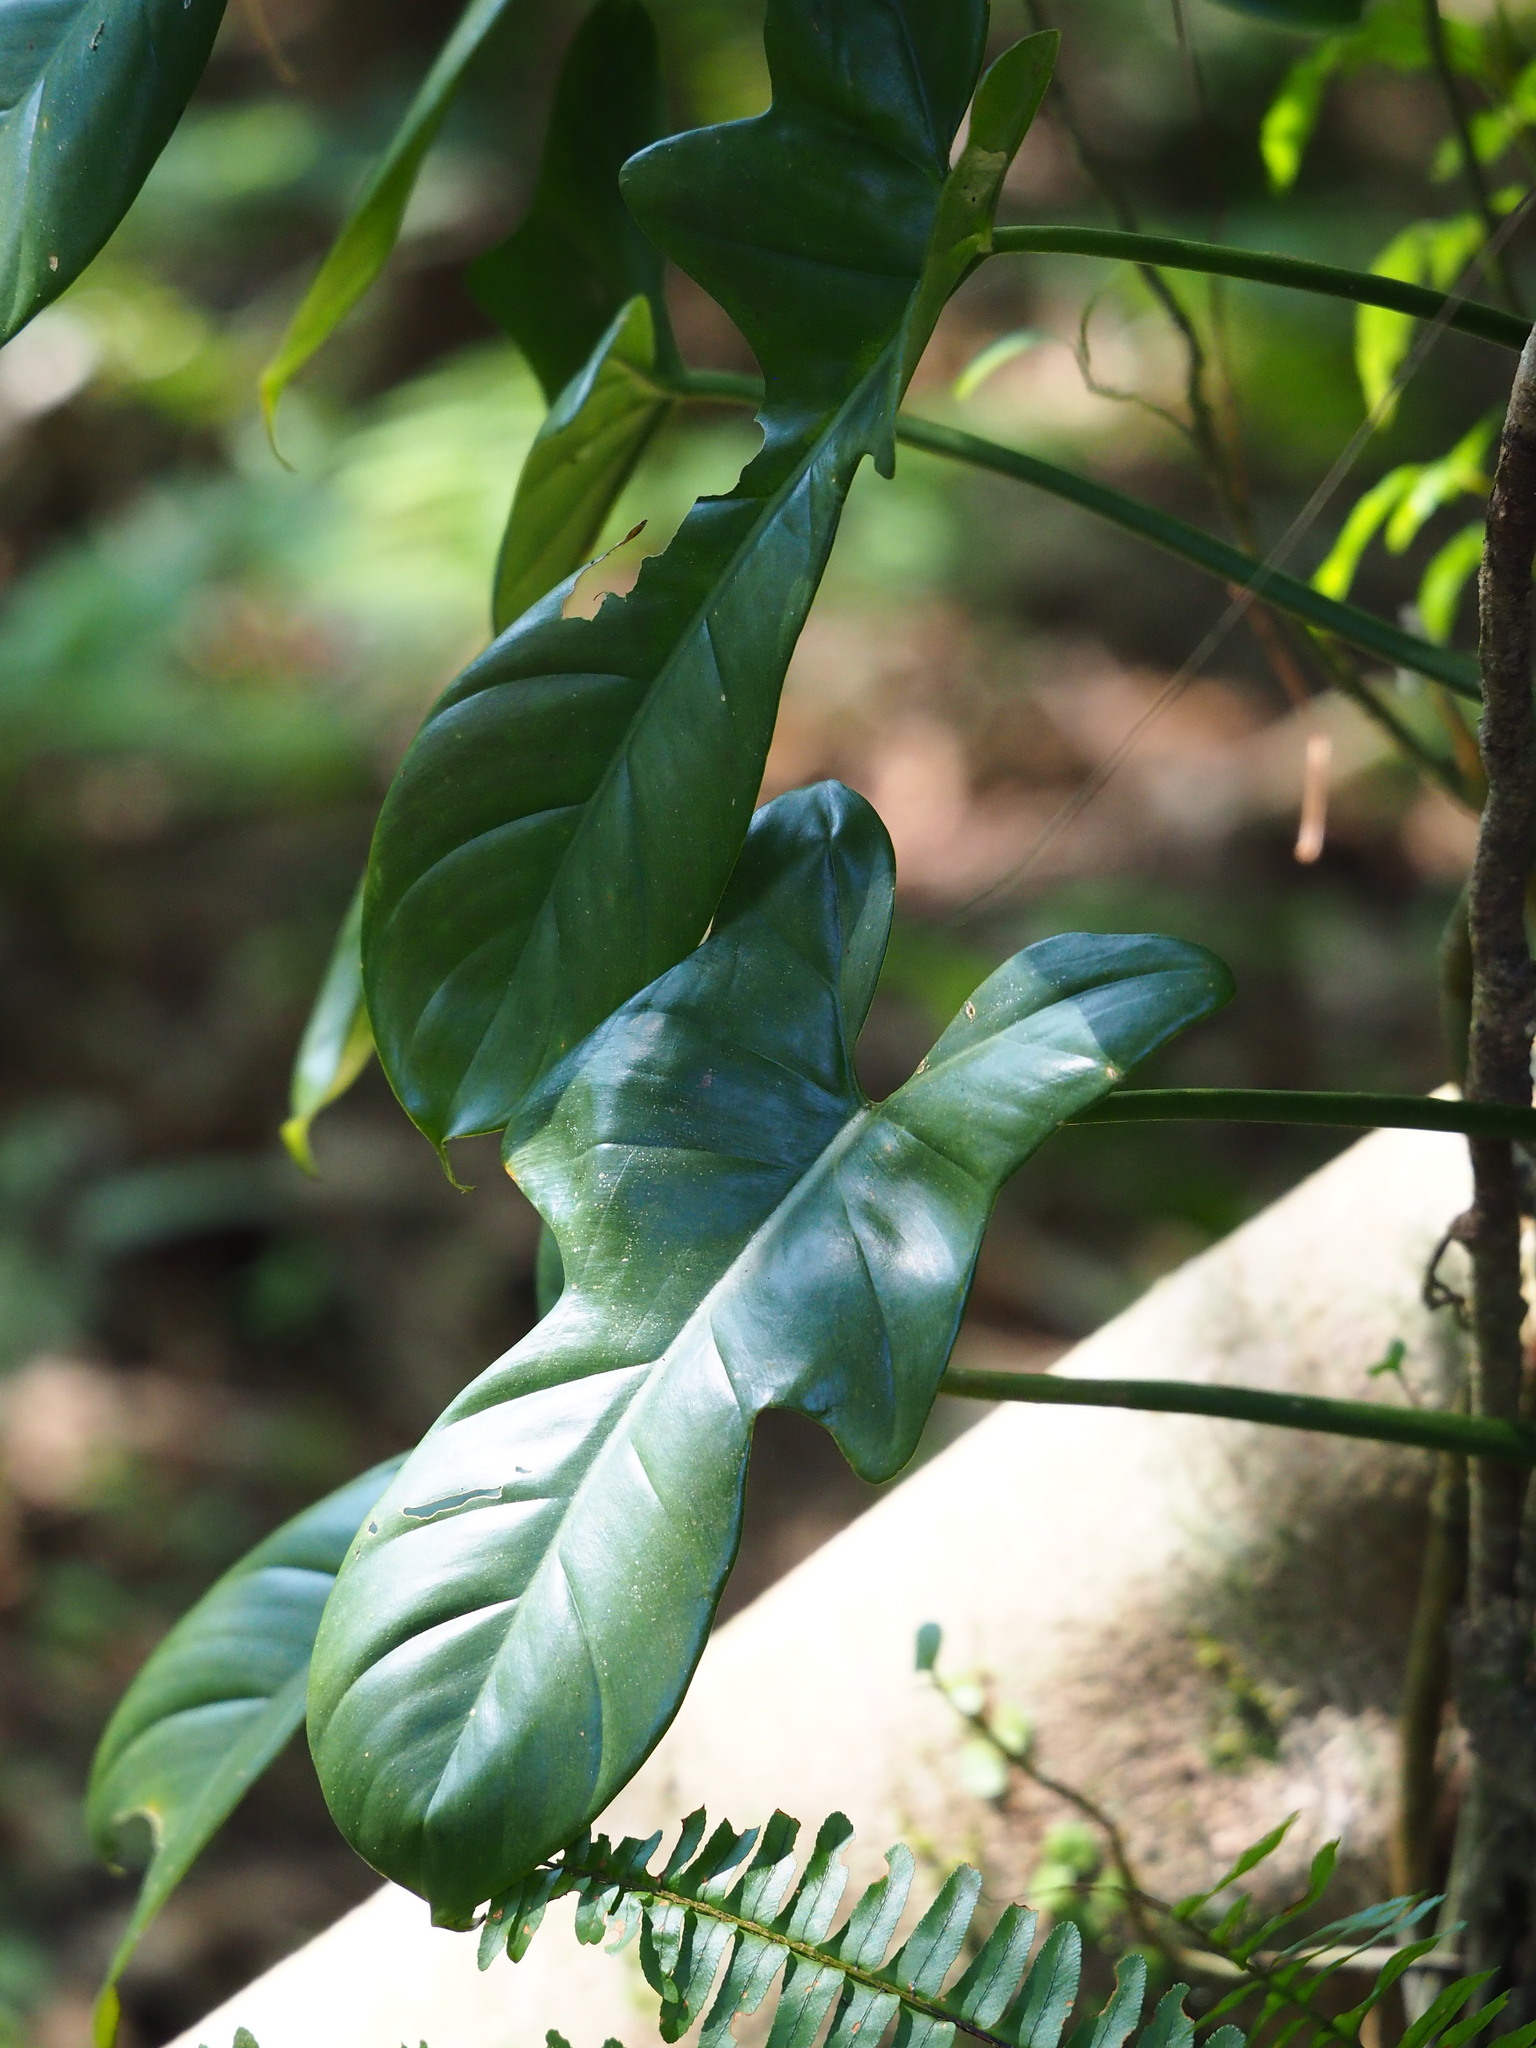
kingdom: Plantae
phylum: Tracheophyta
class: Liliopsida
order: Alismatales
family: Araceae
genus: Philodendron
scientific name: Philodendron bipennifolium
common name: Fiddle-leaf philodendron
